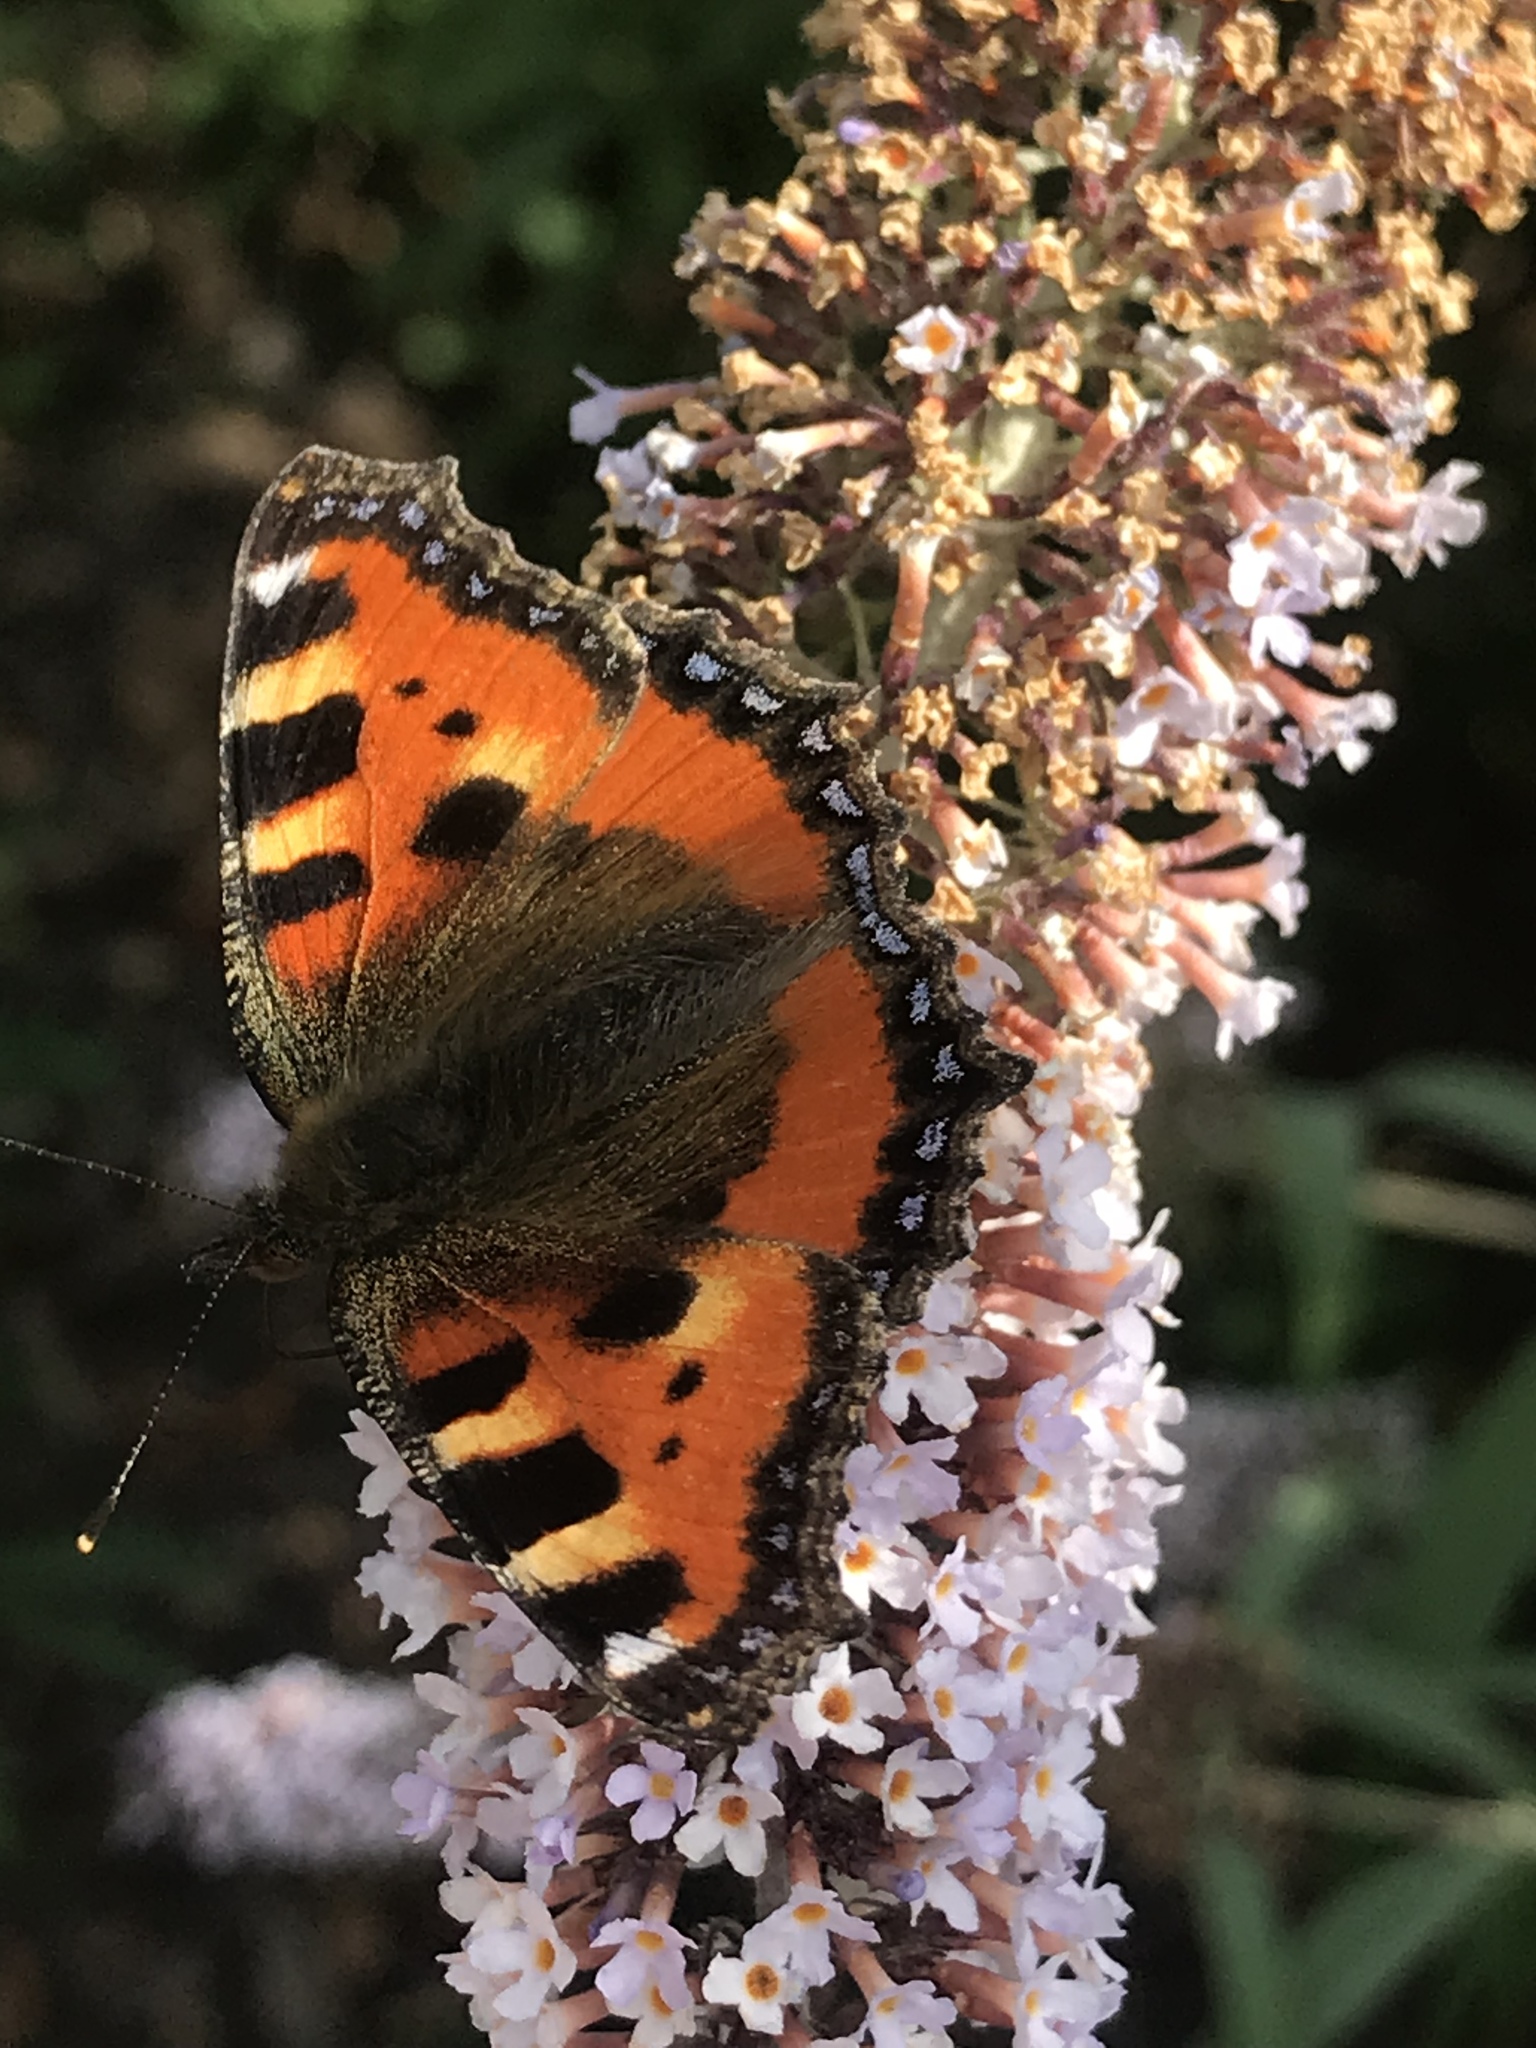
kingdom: Animalia
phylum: Arthropoda
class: Insecta
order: Lepidoptera
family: Nymphalidae
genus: Aglais
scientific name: Aglais urticae
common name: Small tortoiseshell
